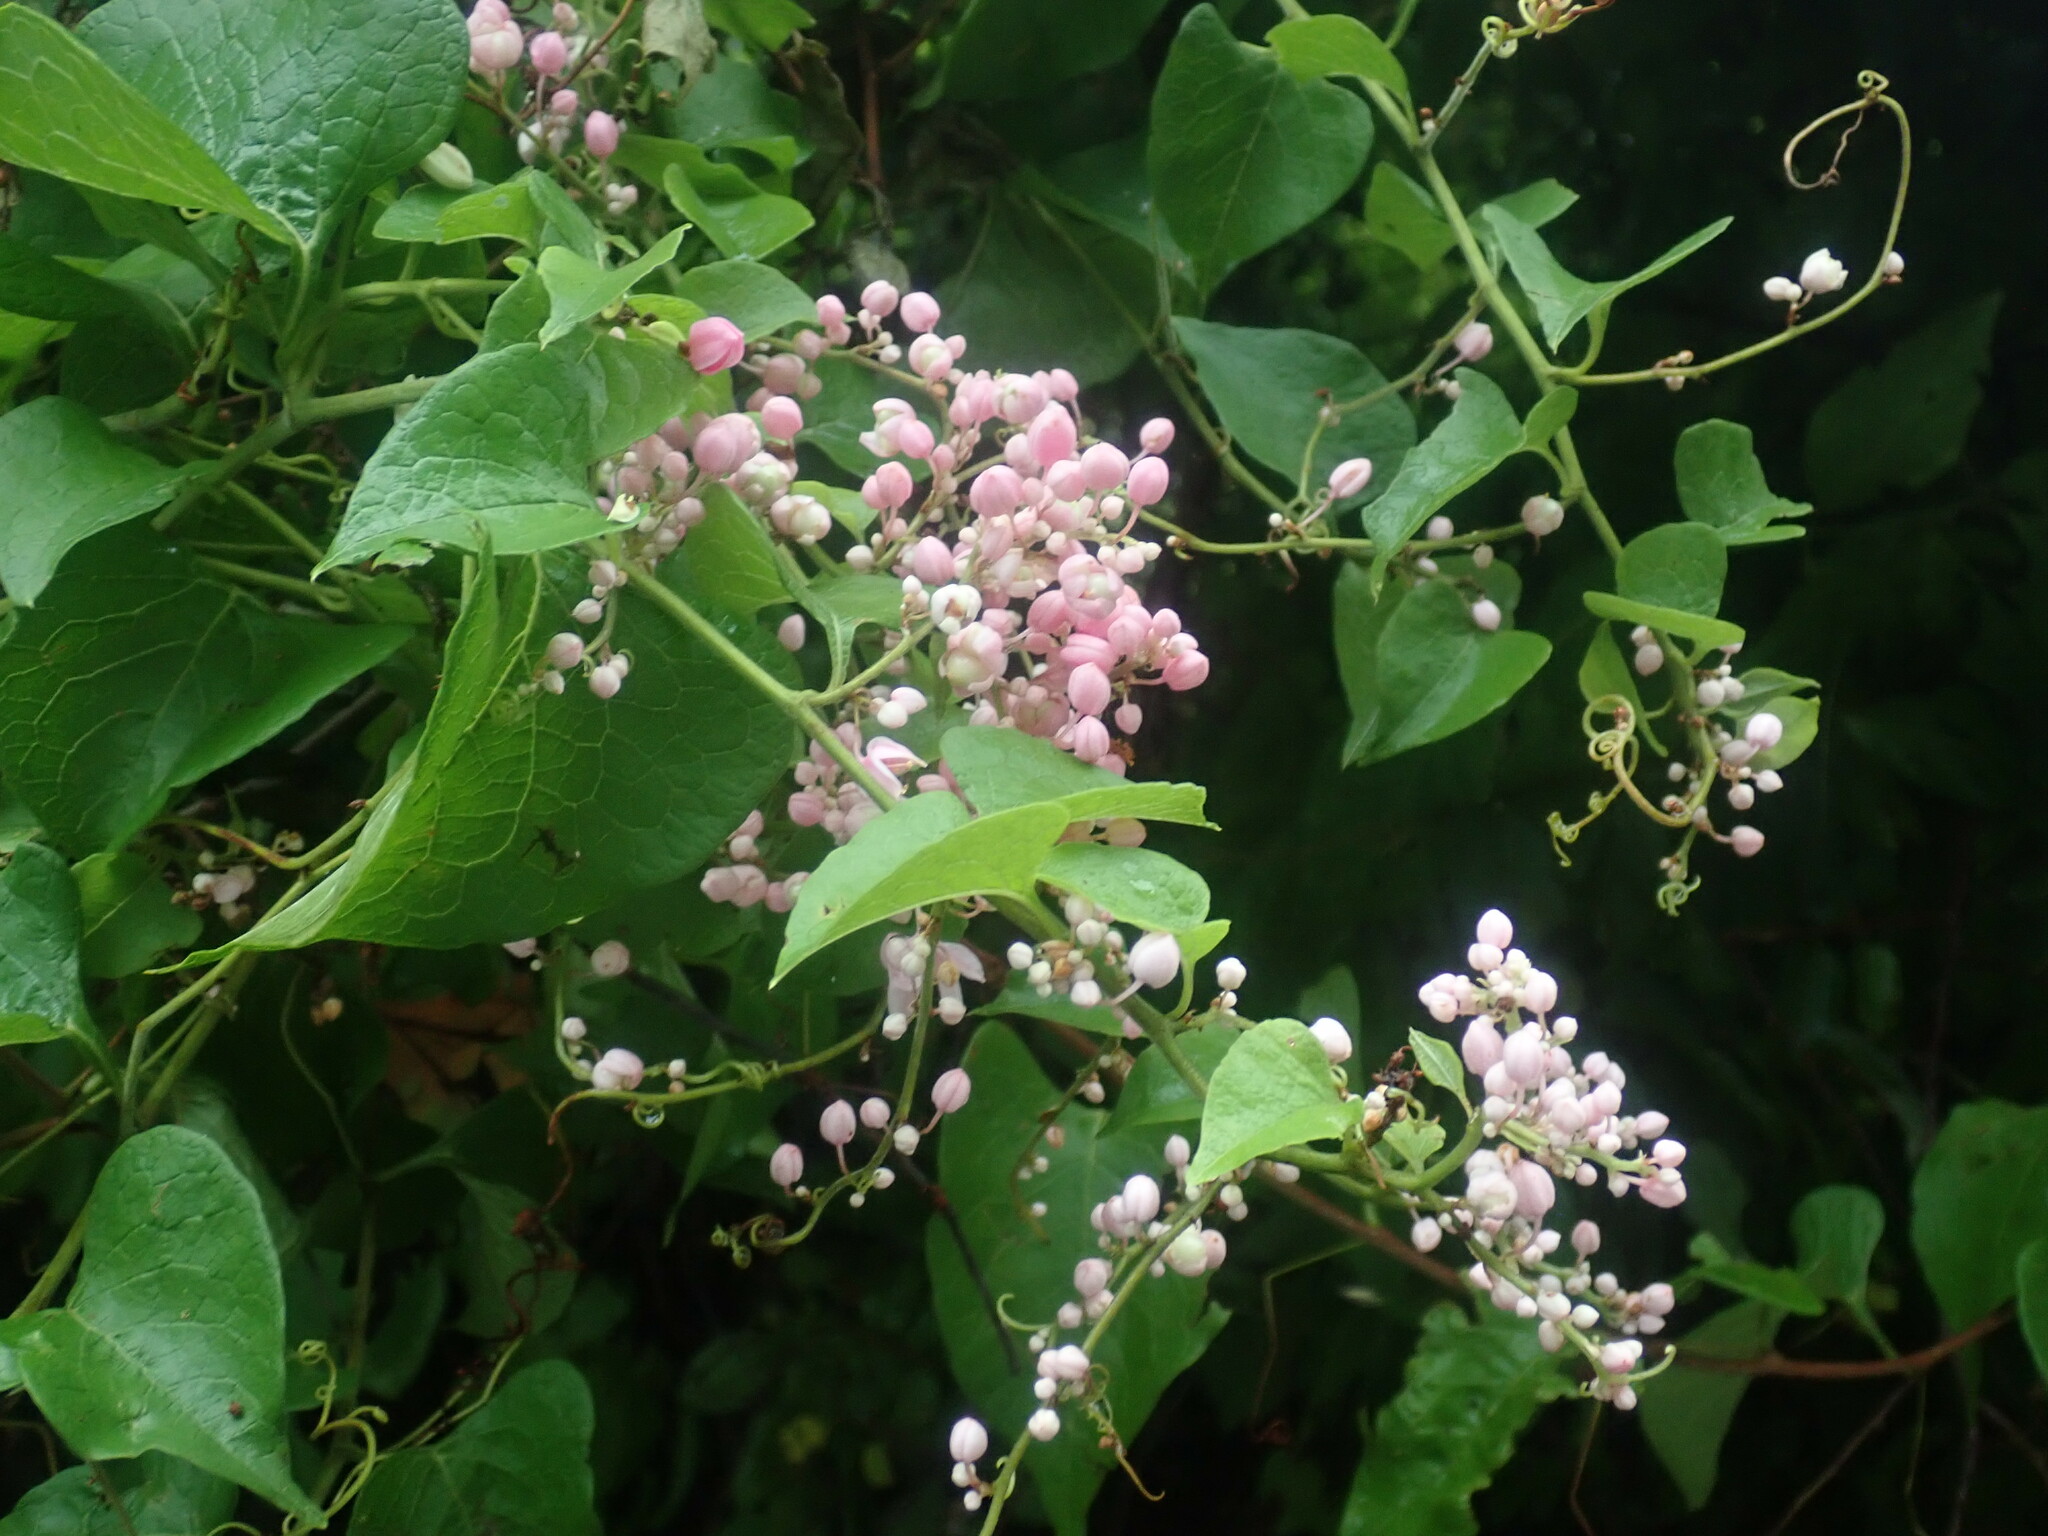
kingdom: Plantae
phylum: Tracheophyta
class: Magnoliopsida
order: Caryophyllales
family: Polygonaceae
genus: Antigonon
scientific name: Antigonon leptopus
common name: Coral vine
